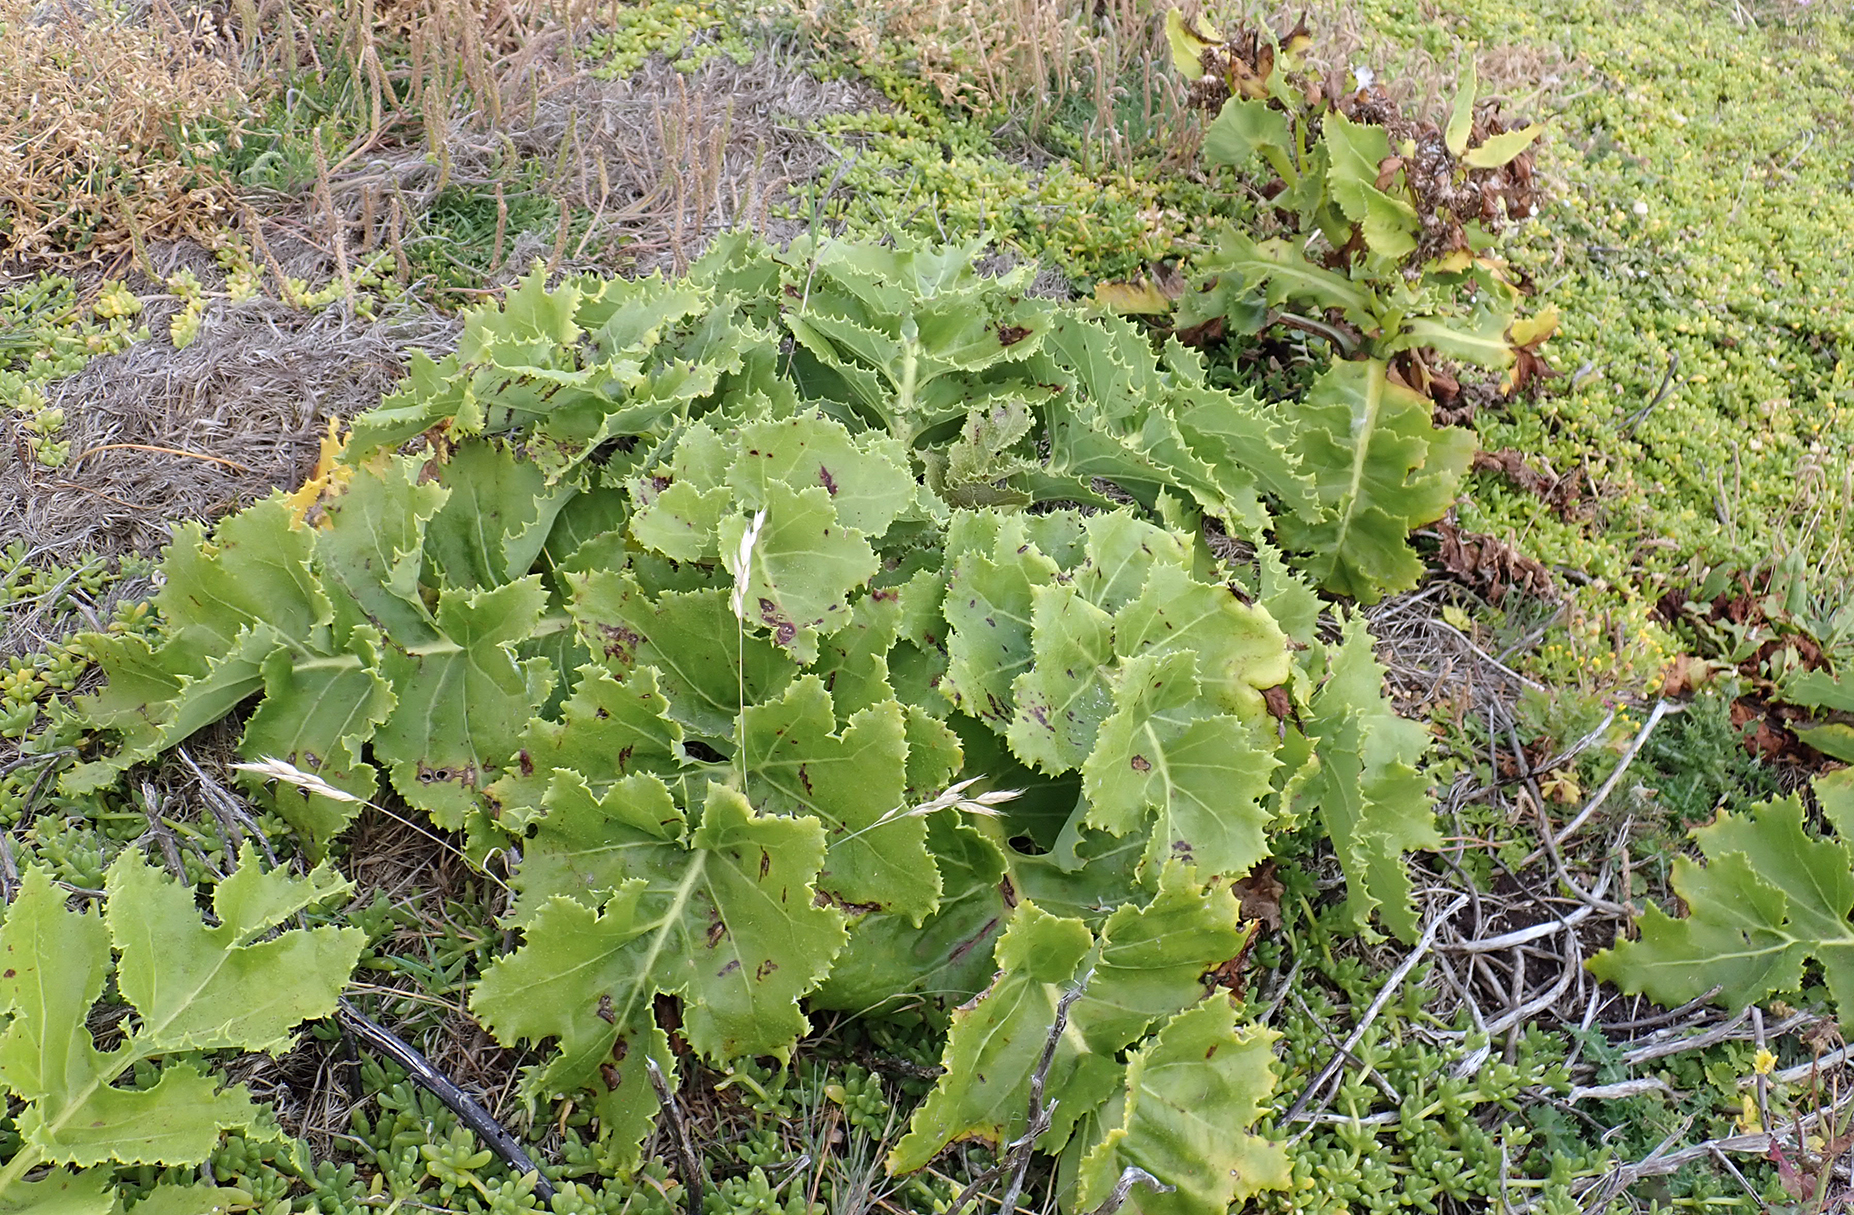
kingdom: Plantae
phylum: Tracheophyta
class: Magnoliopsida
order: Asterales
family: Asteraceae
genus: Sonchus
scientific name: Sonchus grandifolius
